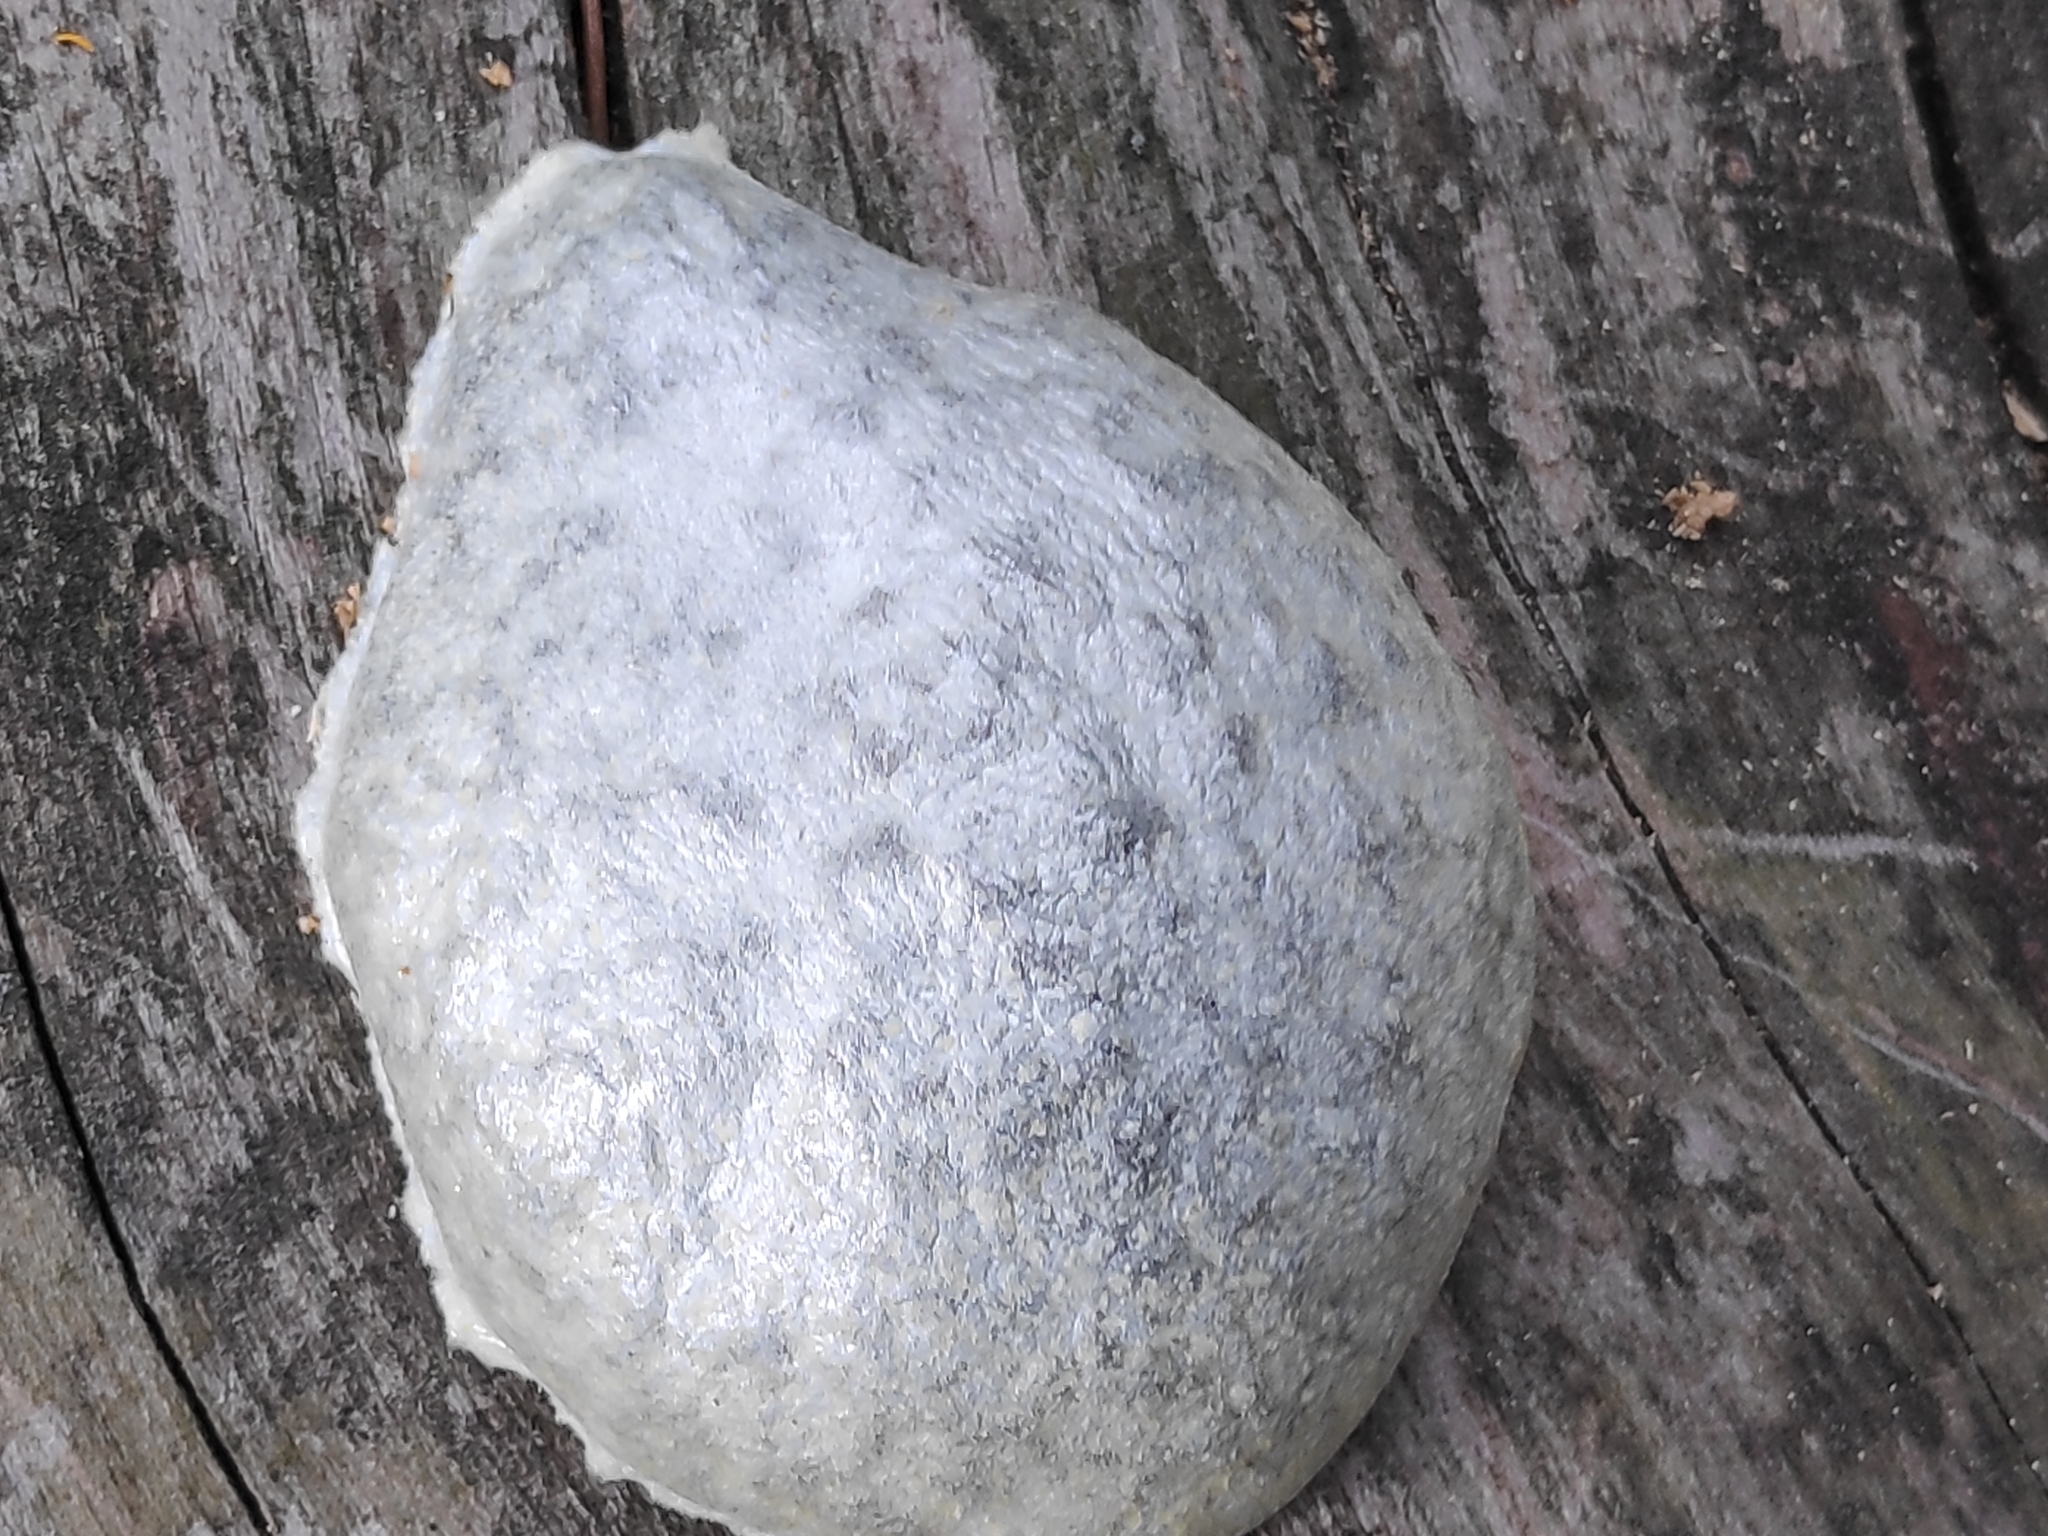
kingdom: Protozoa
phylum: Mycetozoa
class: Myxomycetes
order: Cribrariales
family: Tubiferaceae
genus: Reticularia
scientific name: Reticularia lycoperdon
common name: False puffball
